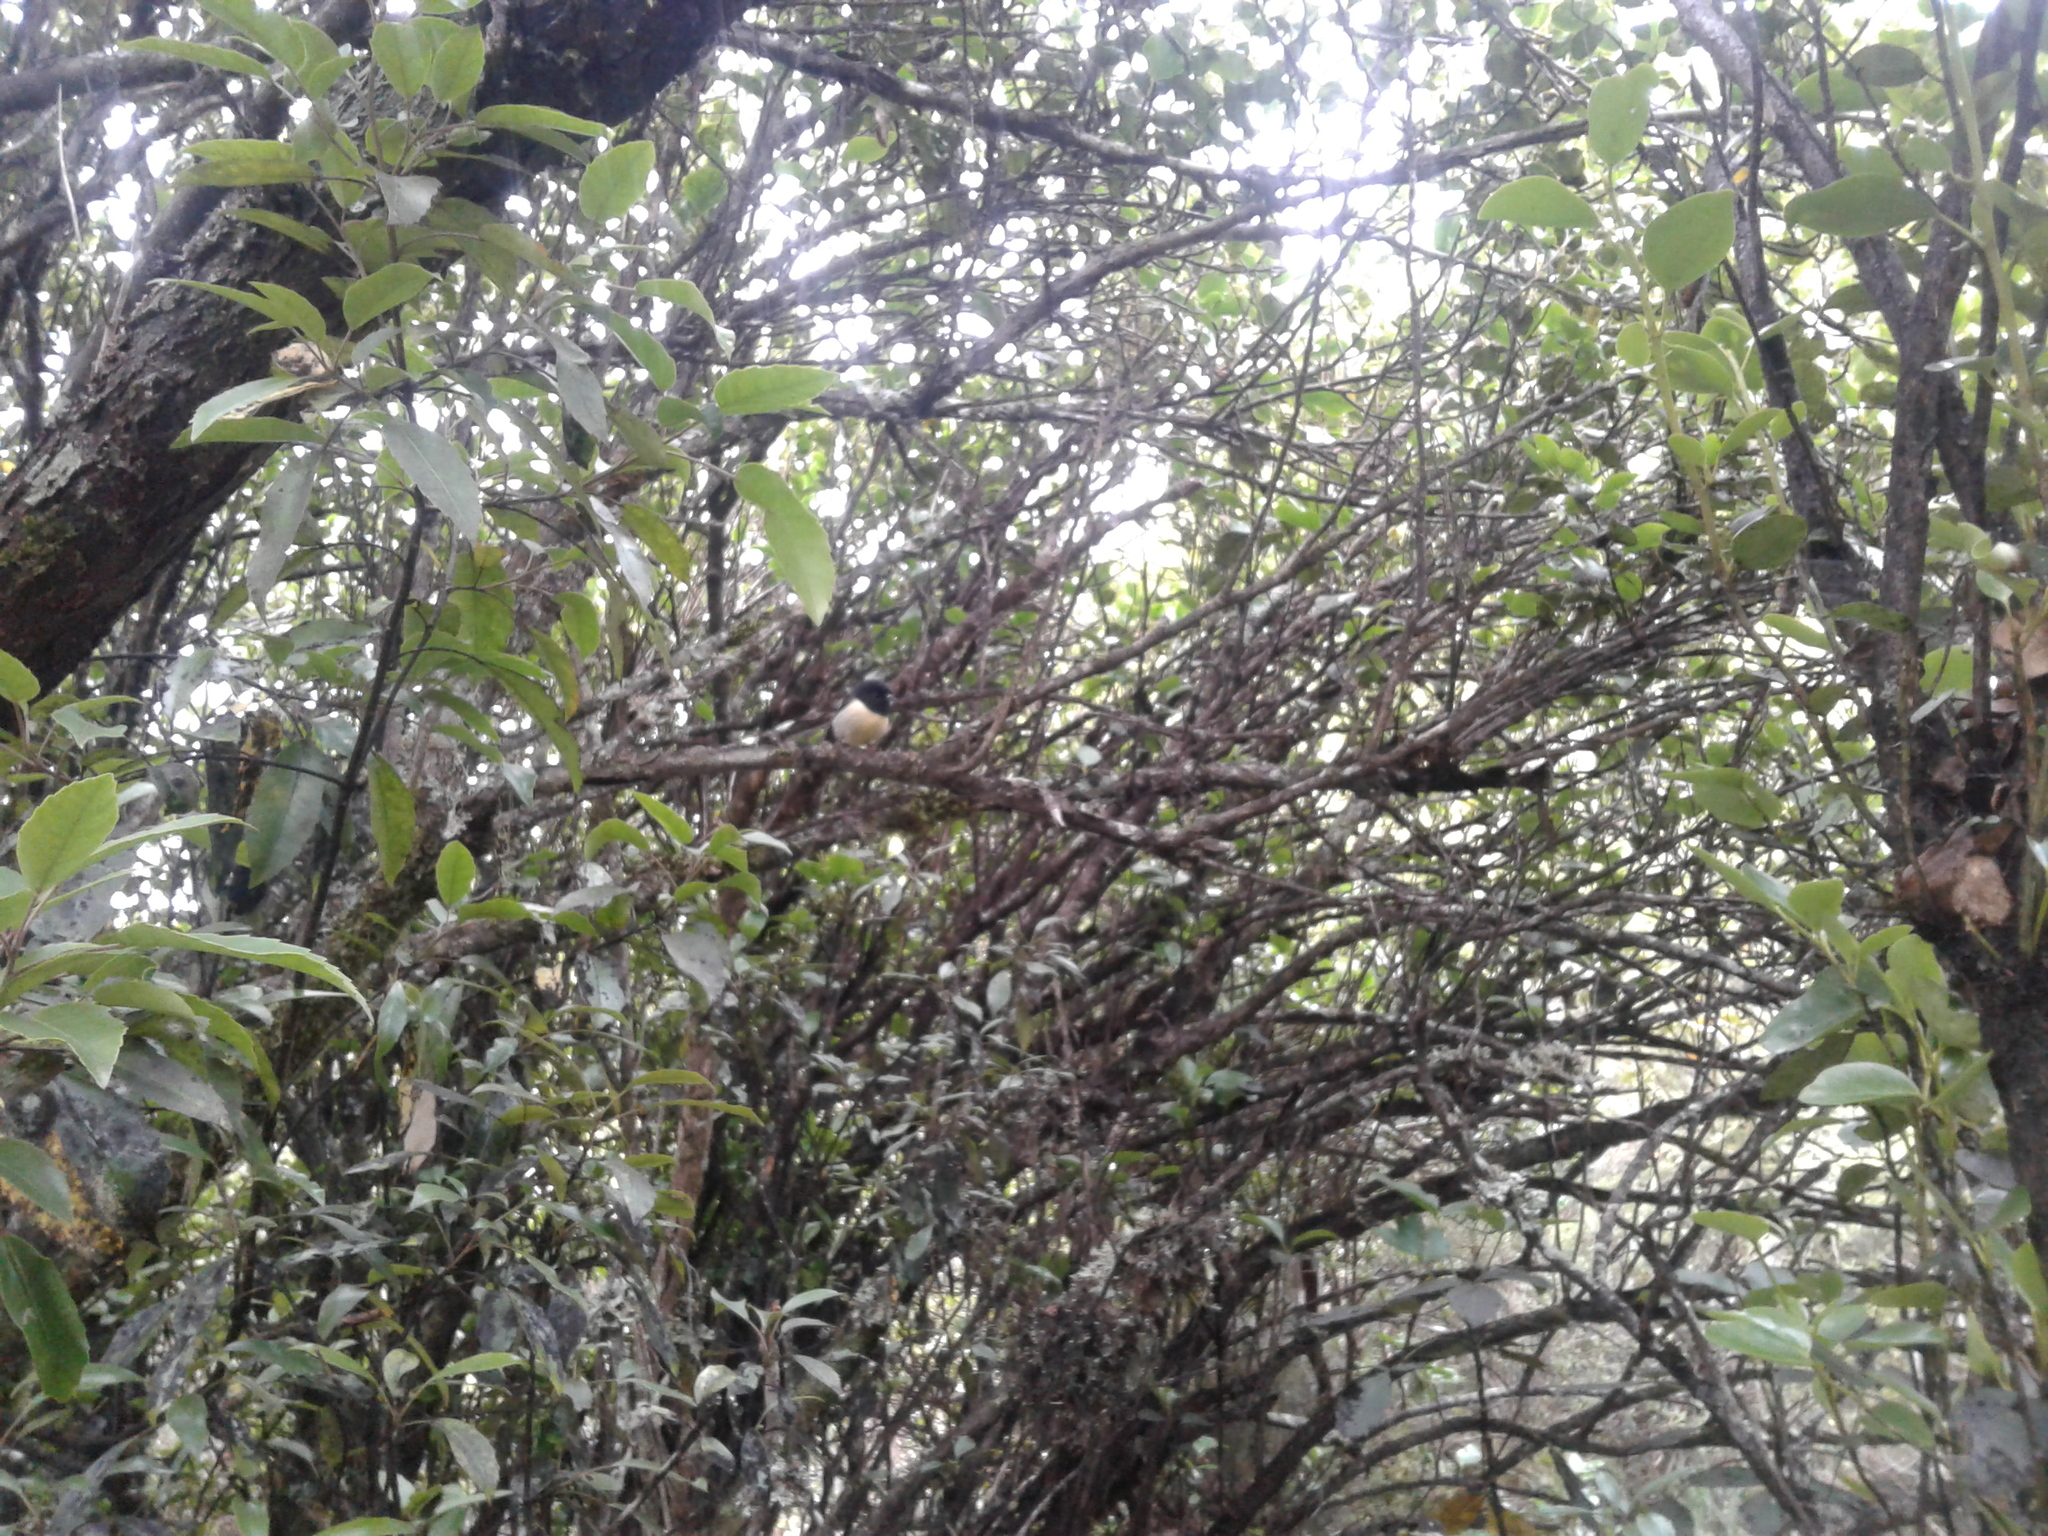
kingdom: Animalia
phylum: Chordata
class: Aves
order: Passeriformes
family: Petroicidae
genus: Petroica
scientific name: Petroica macrocephala
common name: Tomtit
